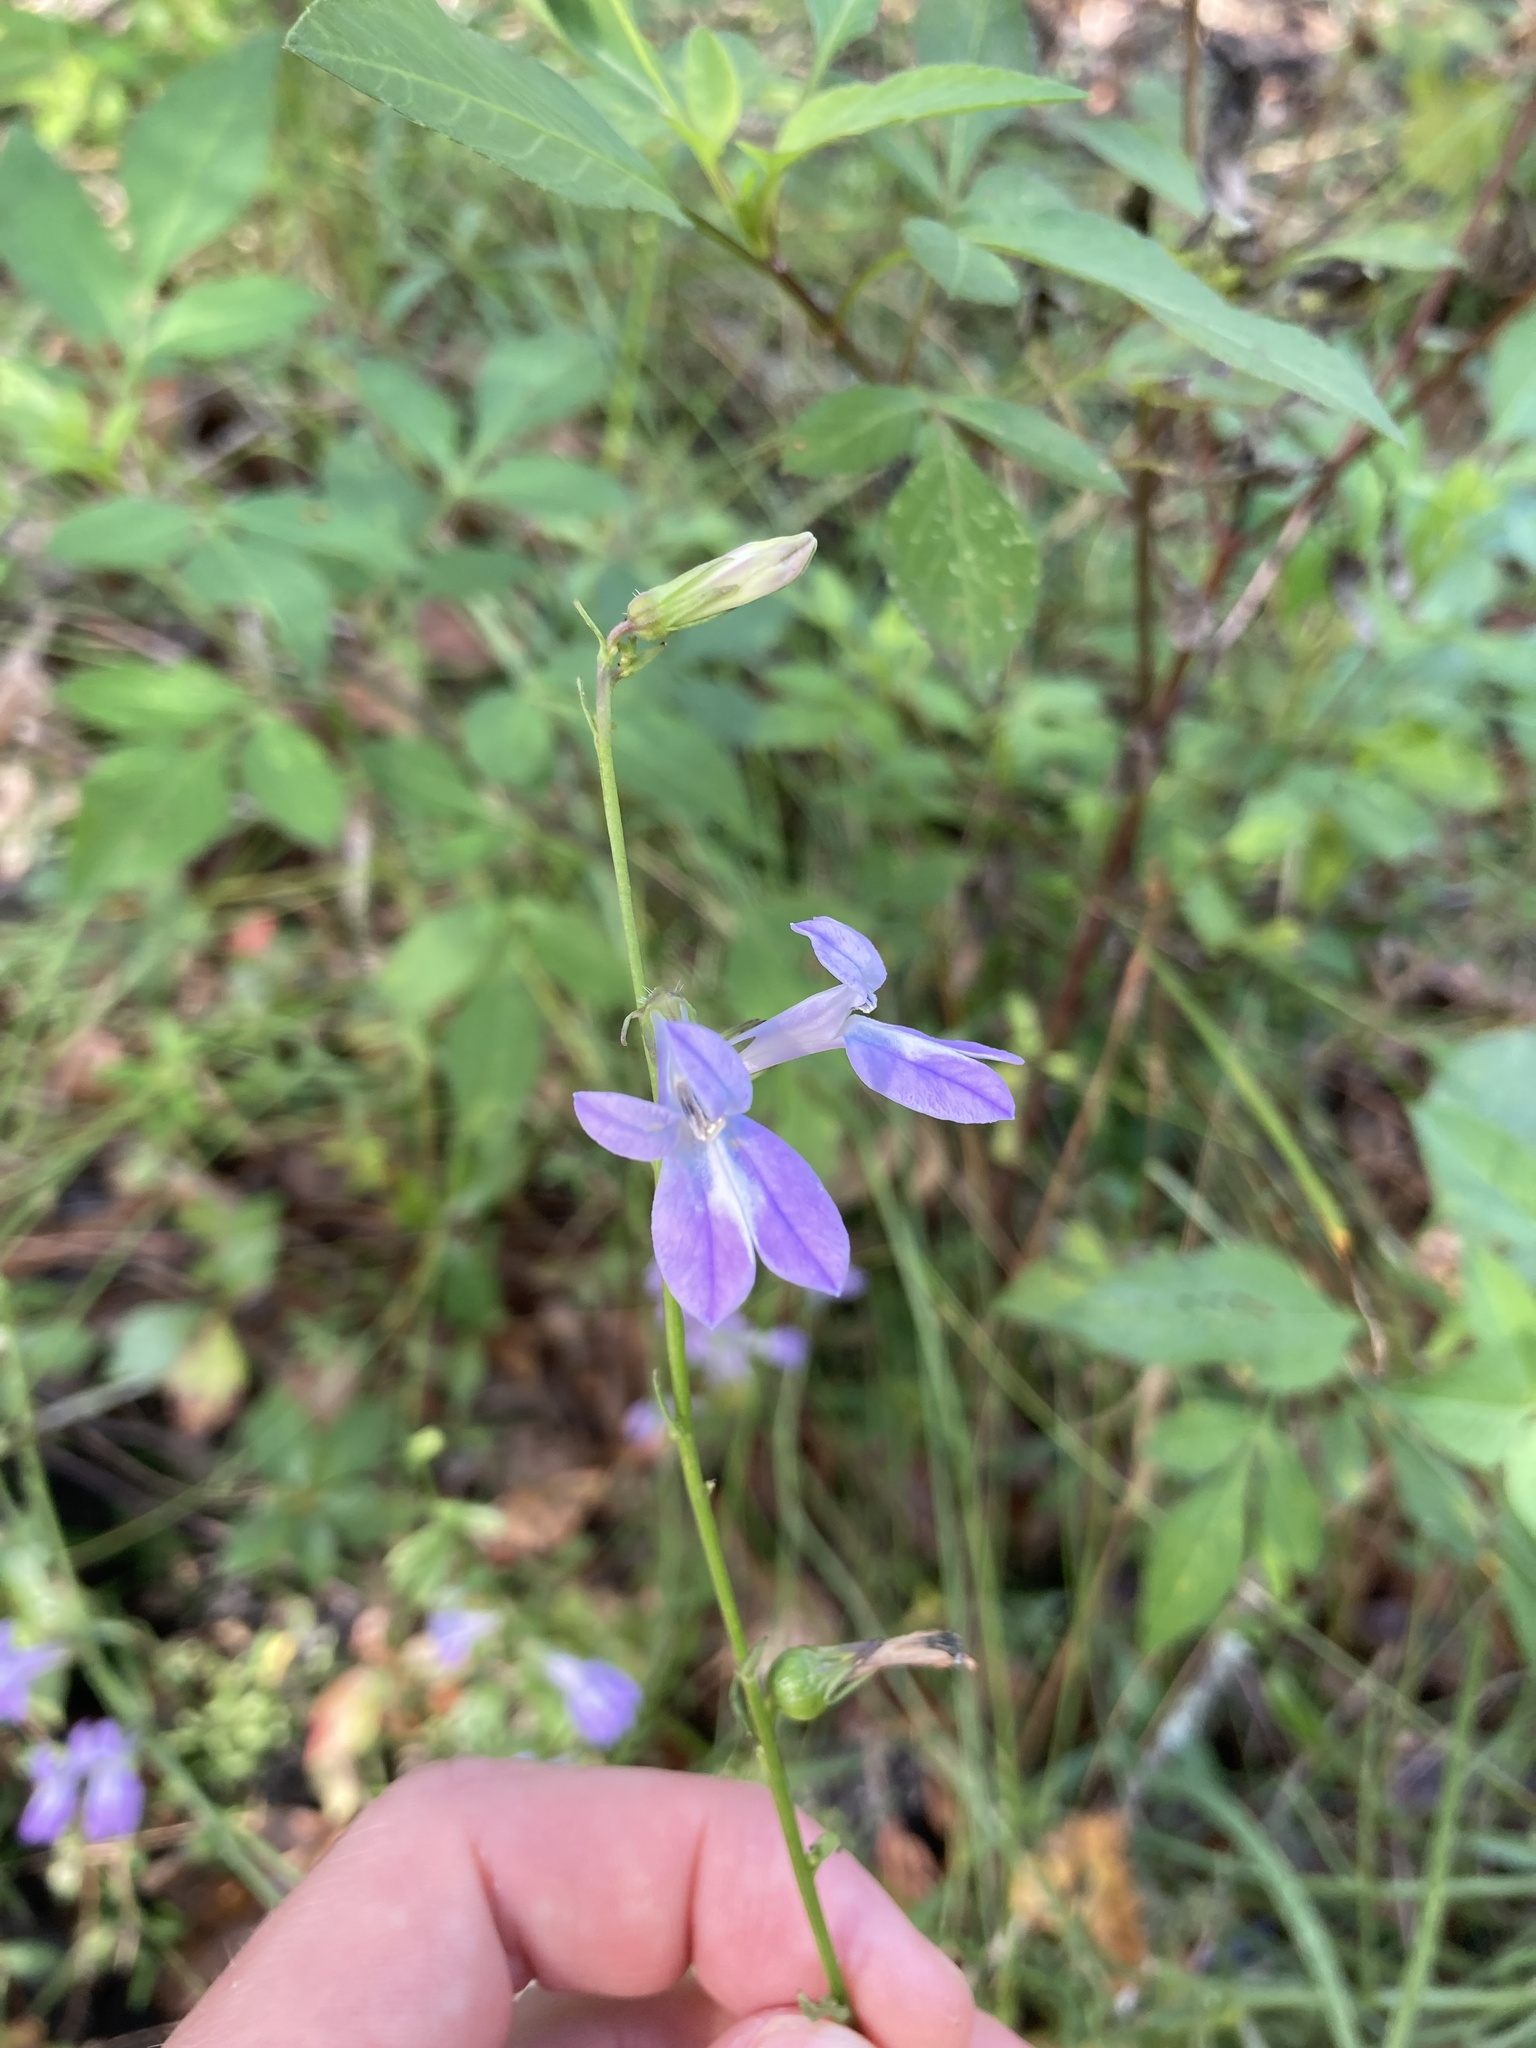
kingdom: Plantae
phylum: Tracheophyta
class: Magnoliopsida
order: Asterales
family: Campanulaceae
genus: Lobelia
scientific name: Lobelia glandulosa
